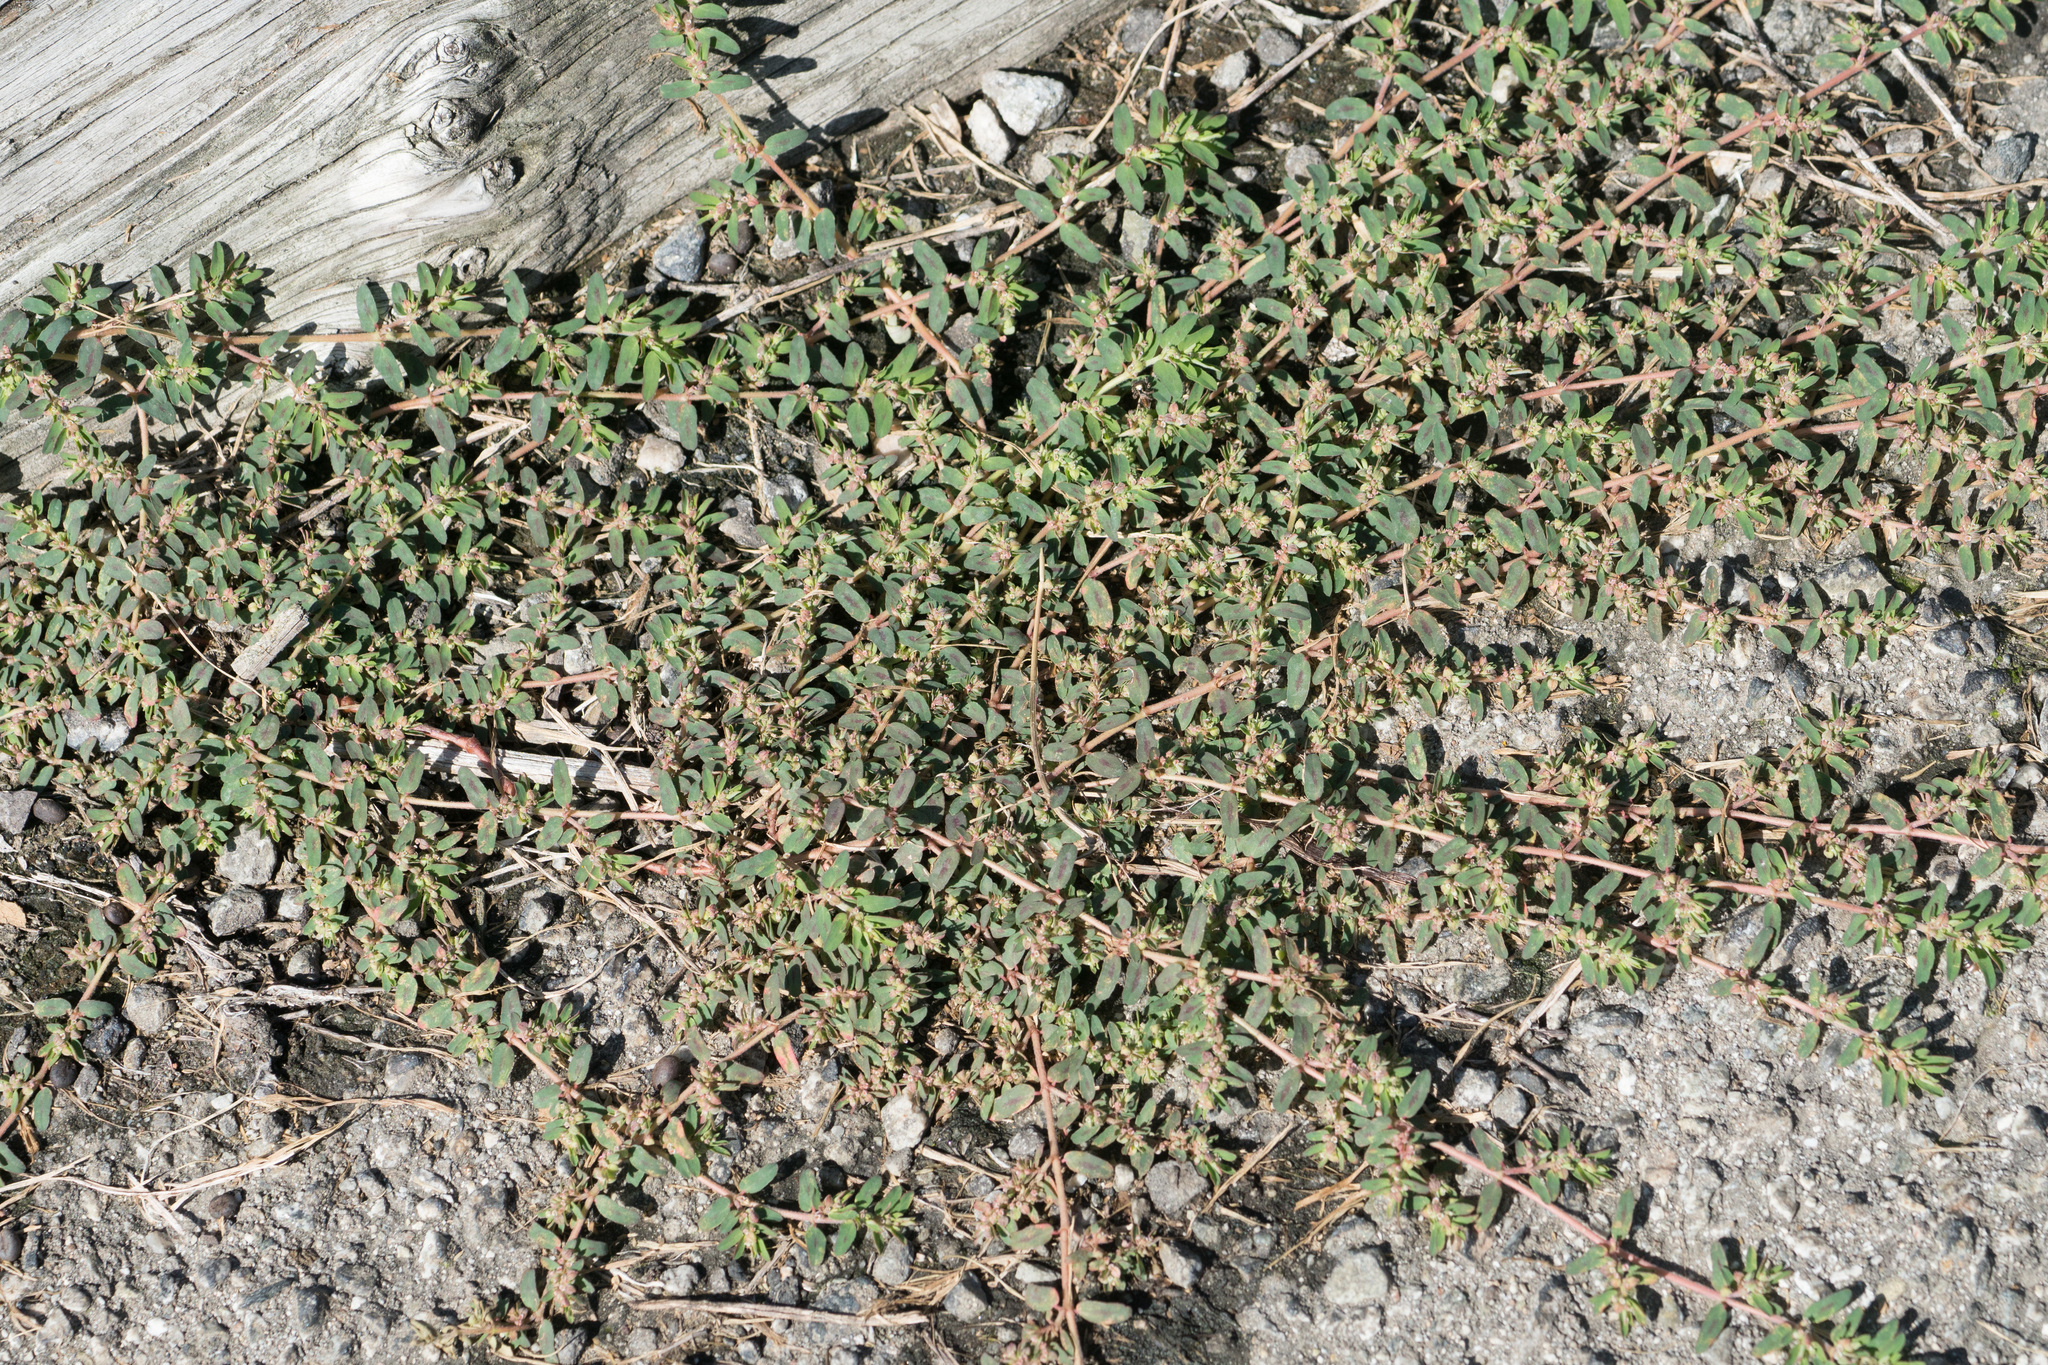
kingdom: Plantae
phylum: Tracheophyta
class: Magnoliopsida
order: Malpighiales
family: Euphorbiaceae
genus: Euphorbia
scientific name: Euphorbia maculata
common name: Spotted spurge
